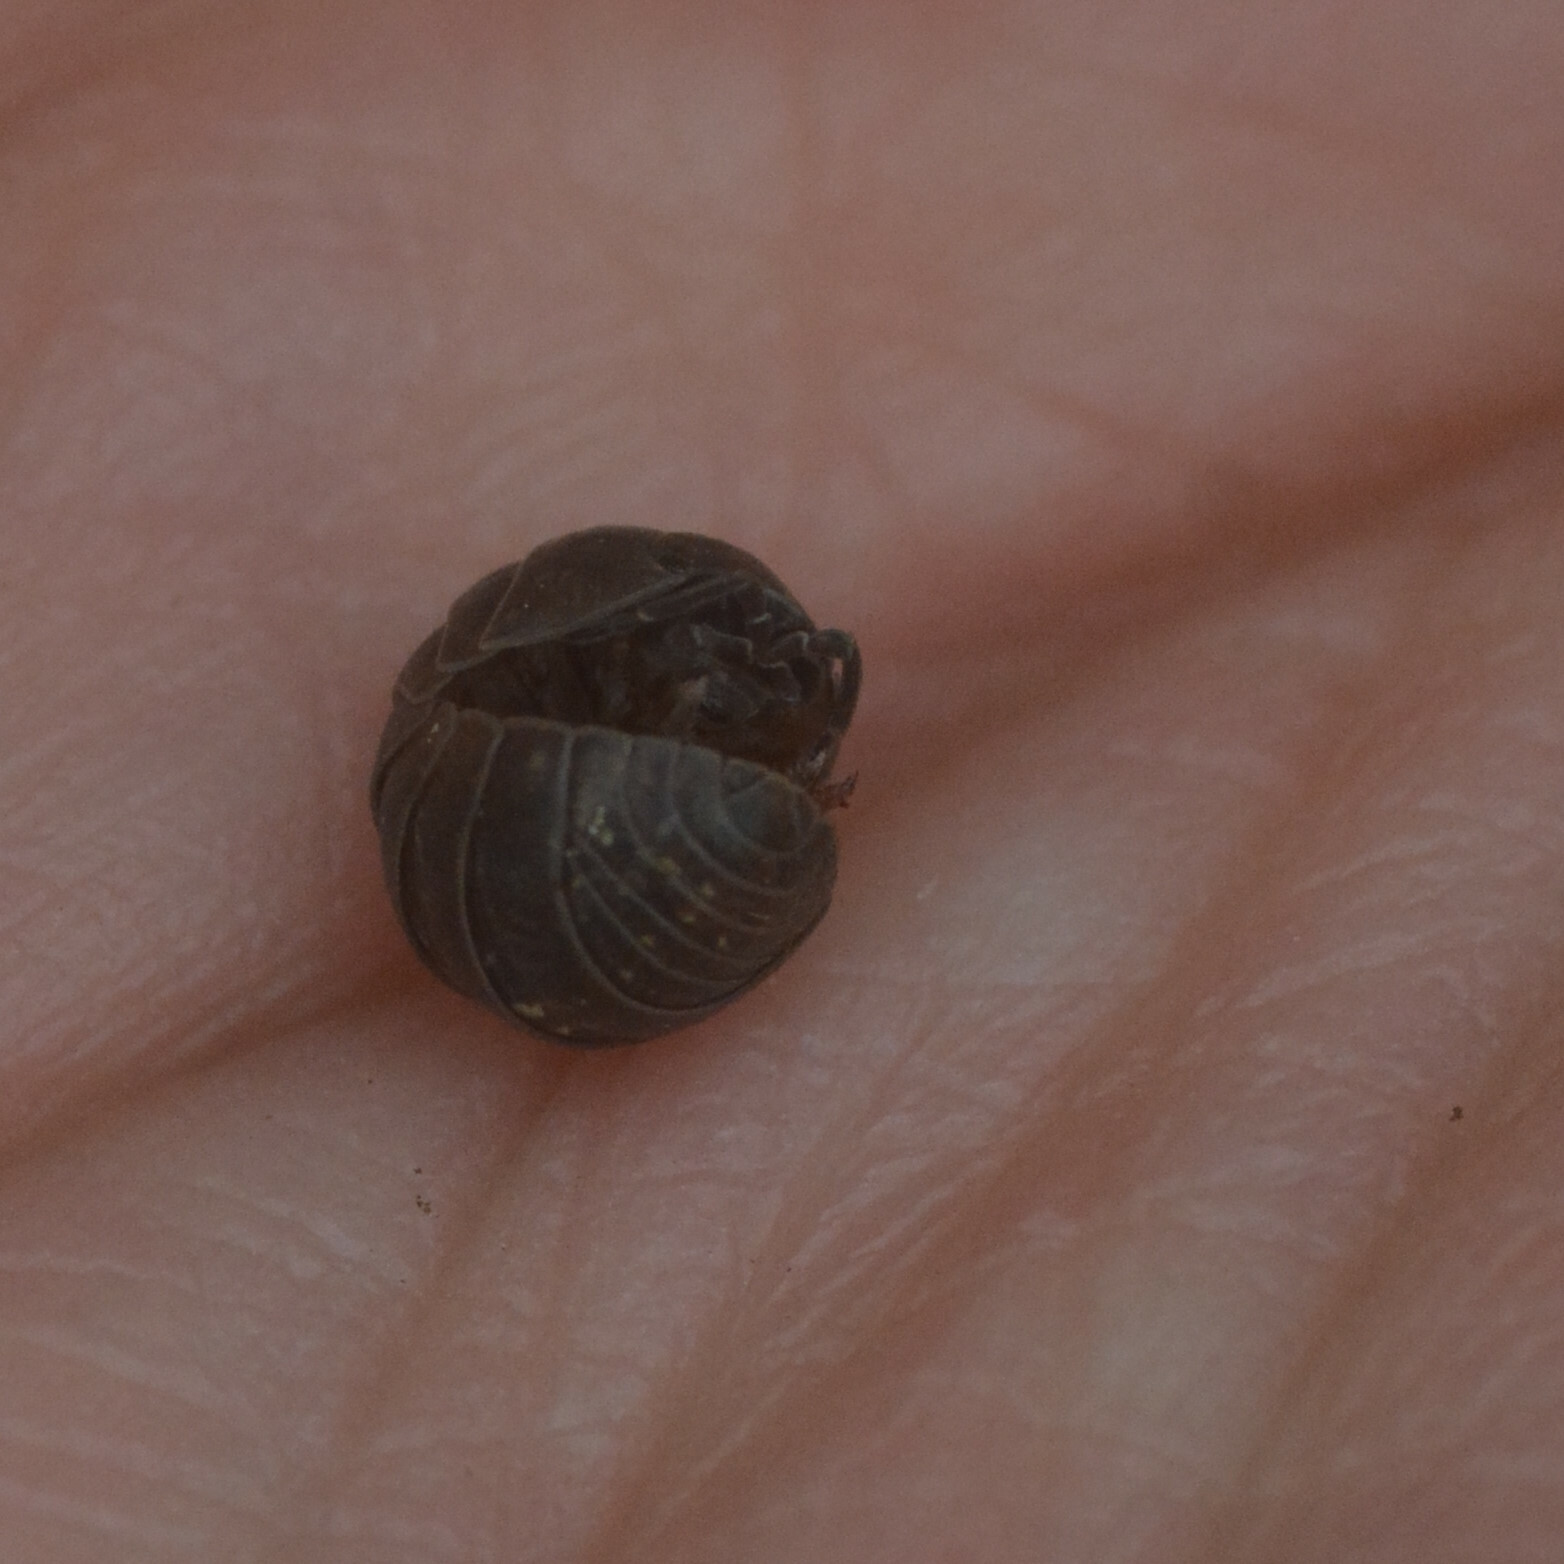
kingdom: Animalia
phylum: Arthropoda
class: Malacostraca
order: Isopoda
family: Armadillidiidae
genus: Armadillidium
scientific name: Armadillidium vulgare
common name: Common pill woodlouse
